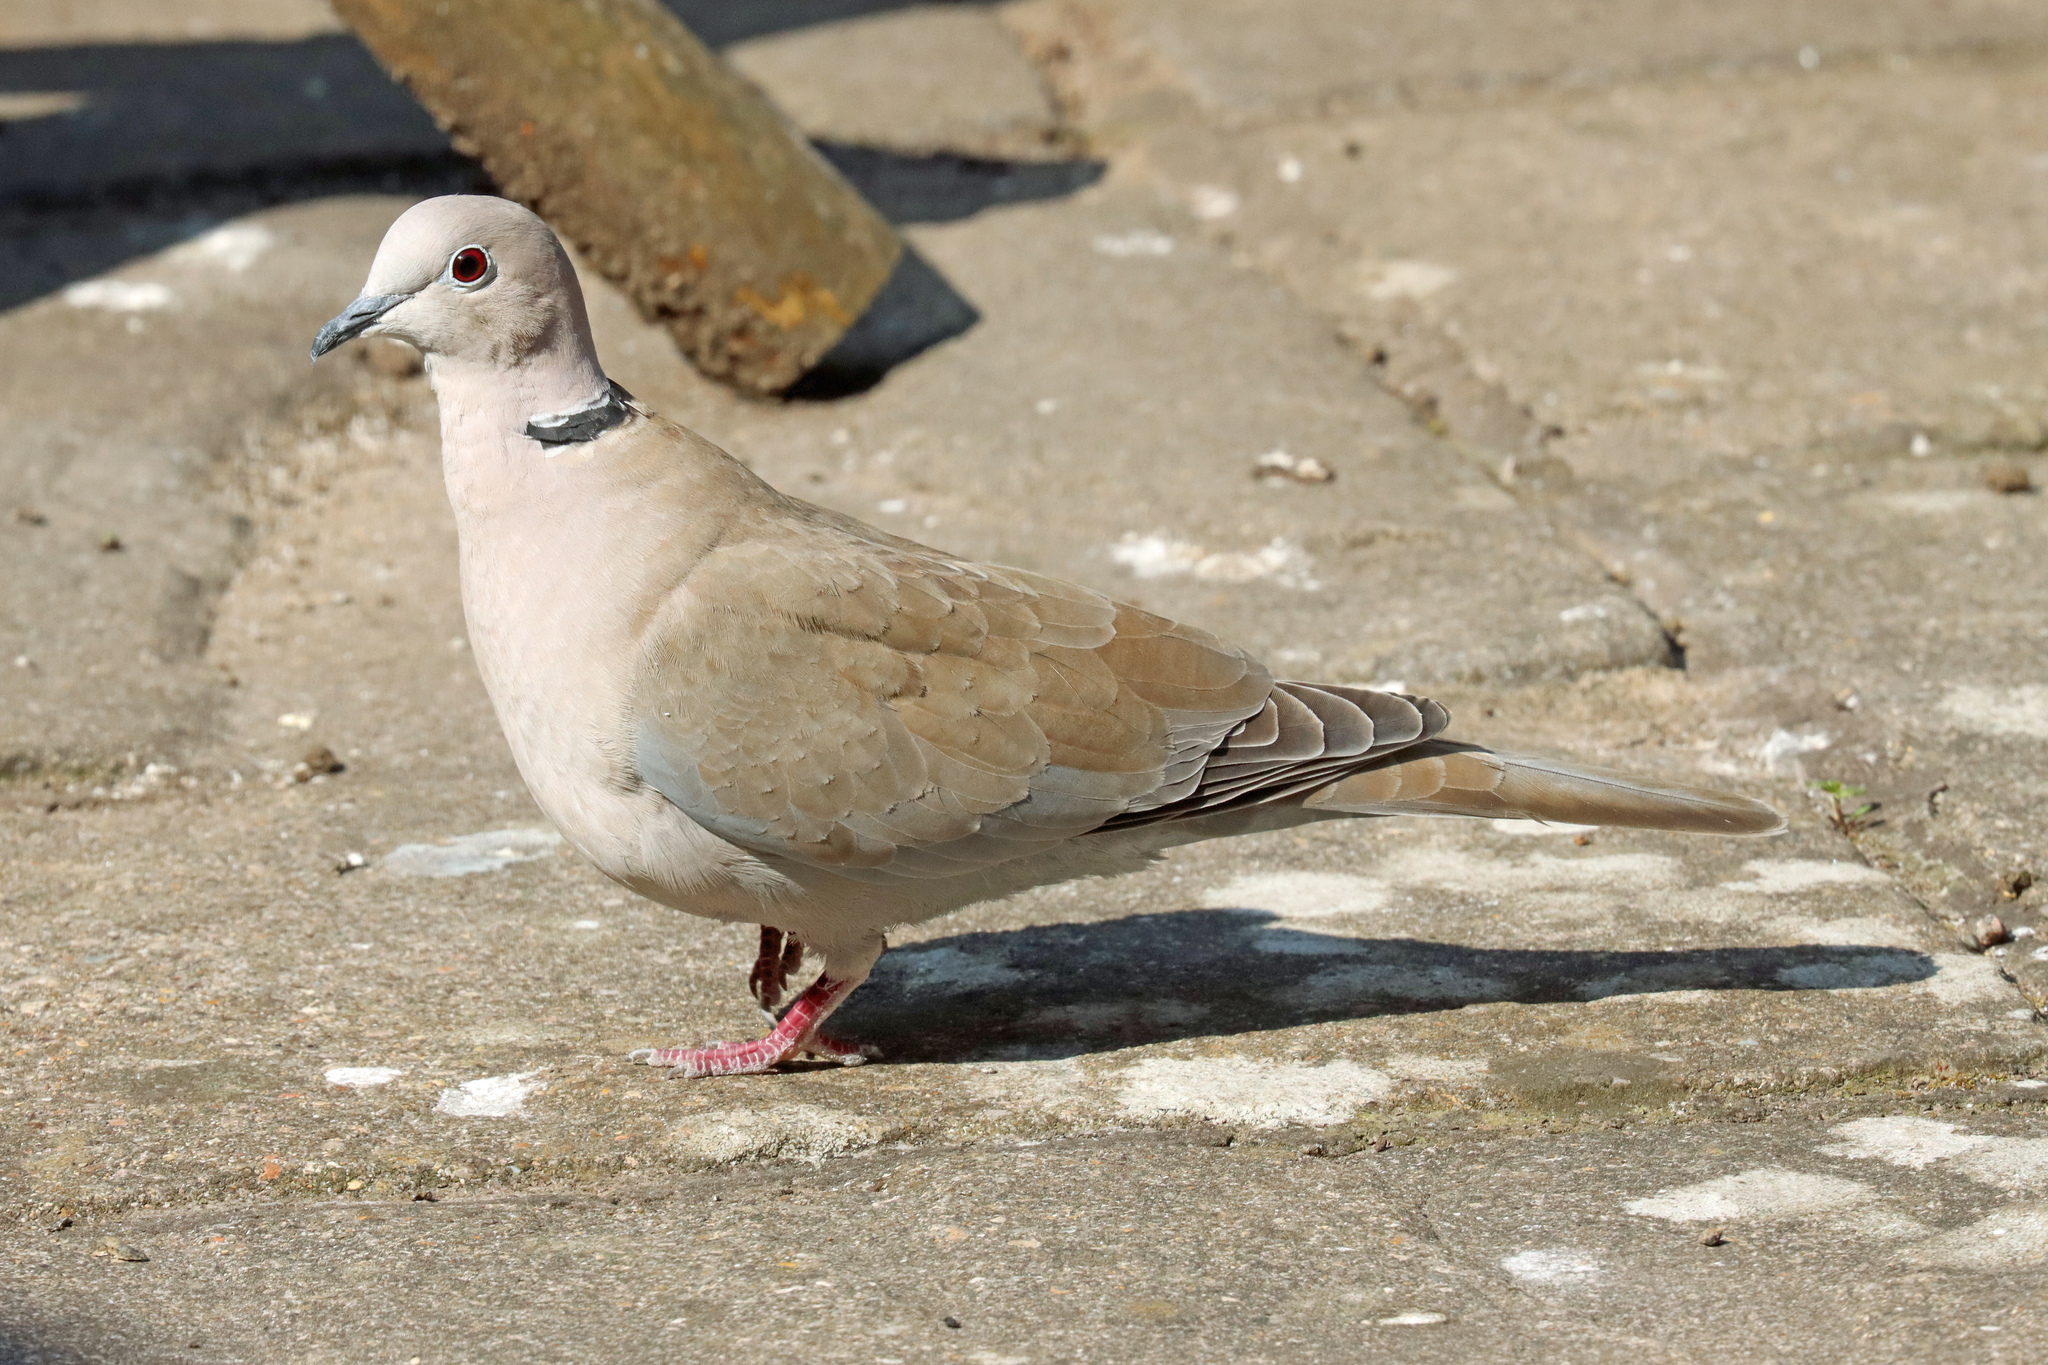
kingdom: Animalia
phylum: Chordata
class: Aves
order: Columbiformes
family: Columbidae
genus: Streptopelia
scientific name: Streptopelia decaocto
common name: Eurasian collared dove
